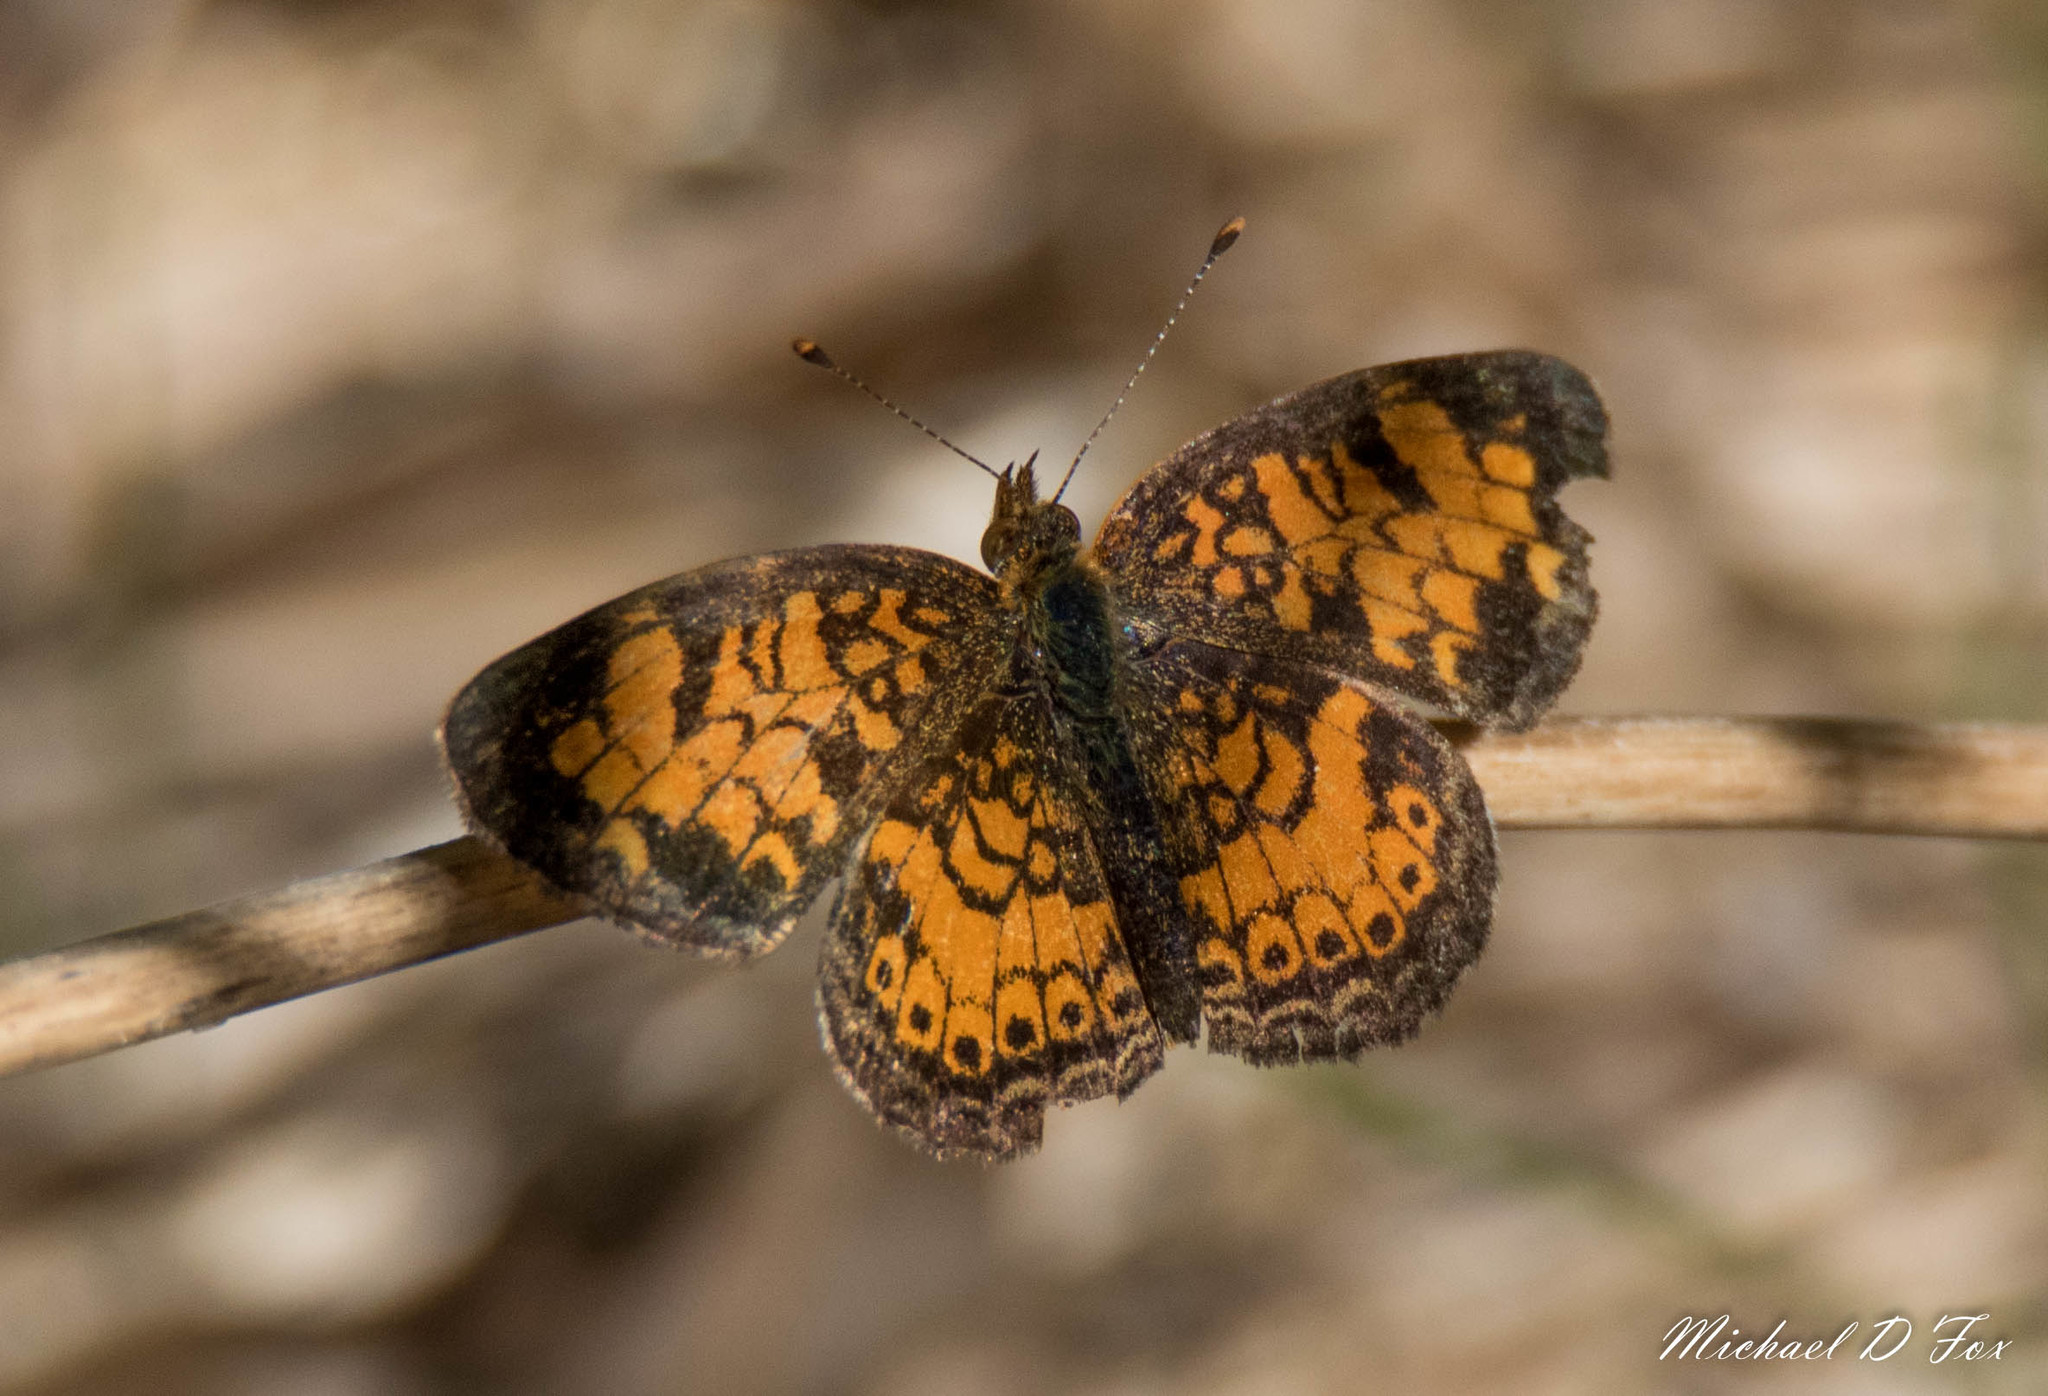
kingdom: Animalia
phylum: Arthropoda
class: Insecta
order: Lepidoptera
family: Nymphalidae
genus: Phyciodes
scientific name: Phyciodes tharos
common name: Pearl crescent
